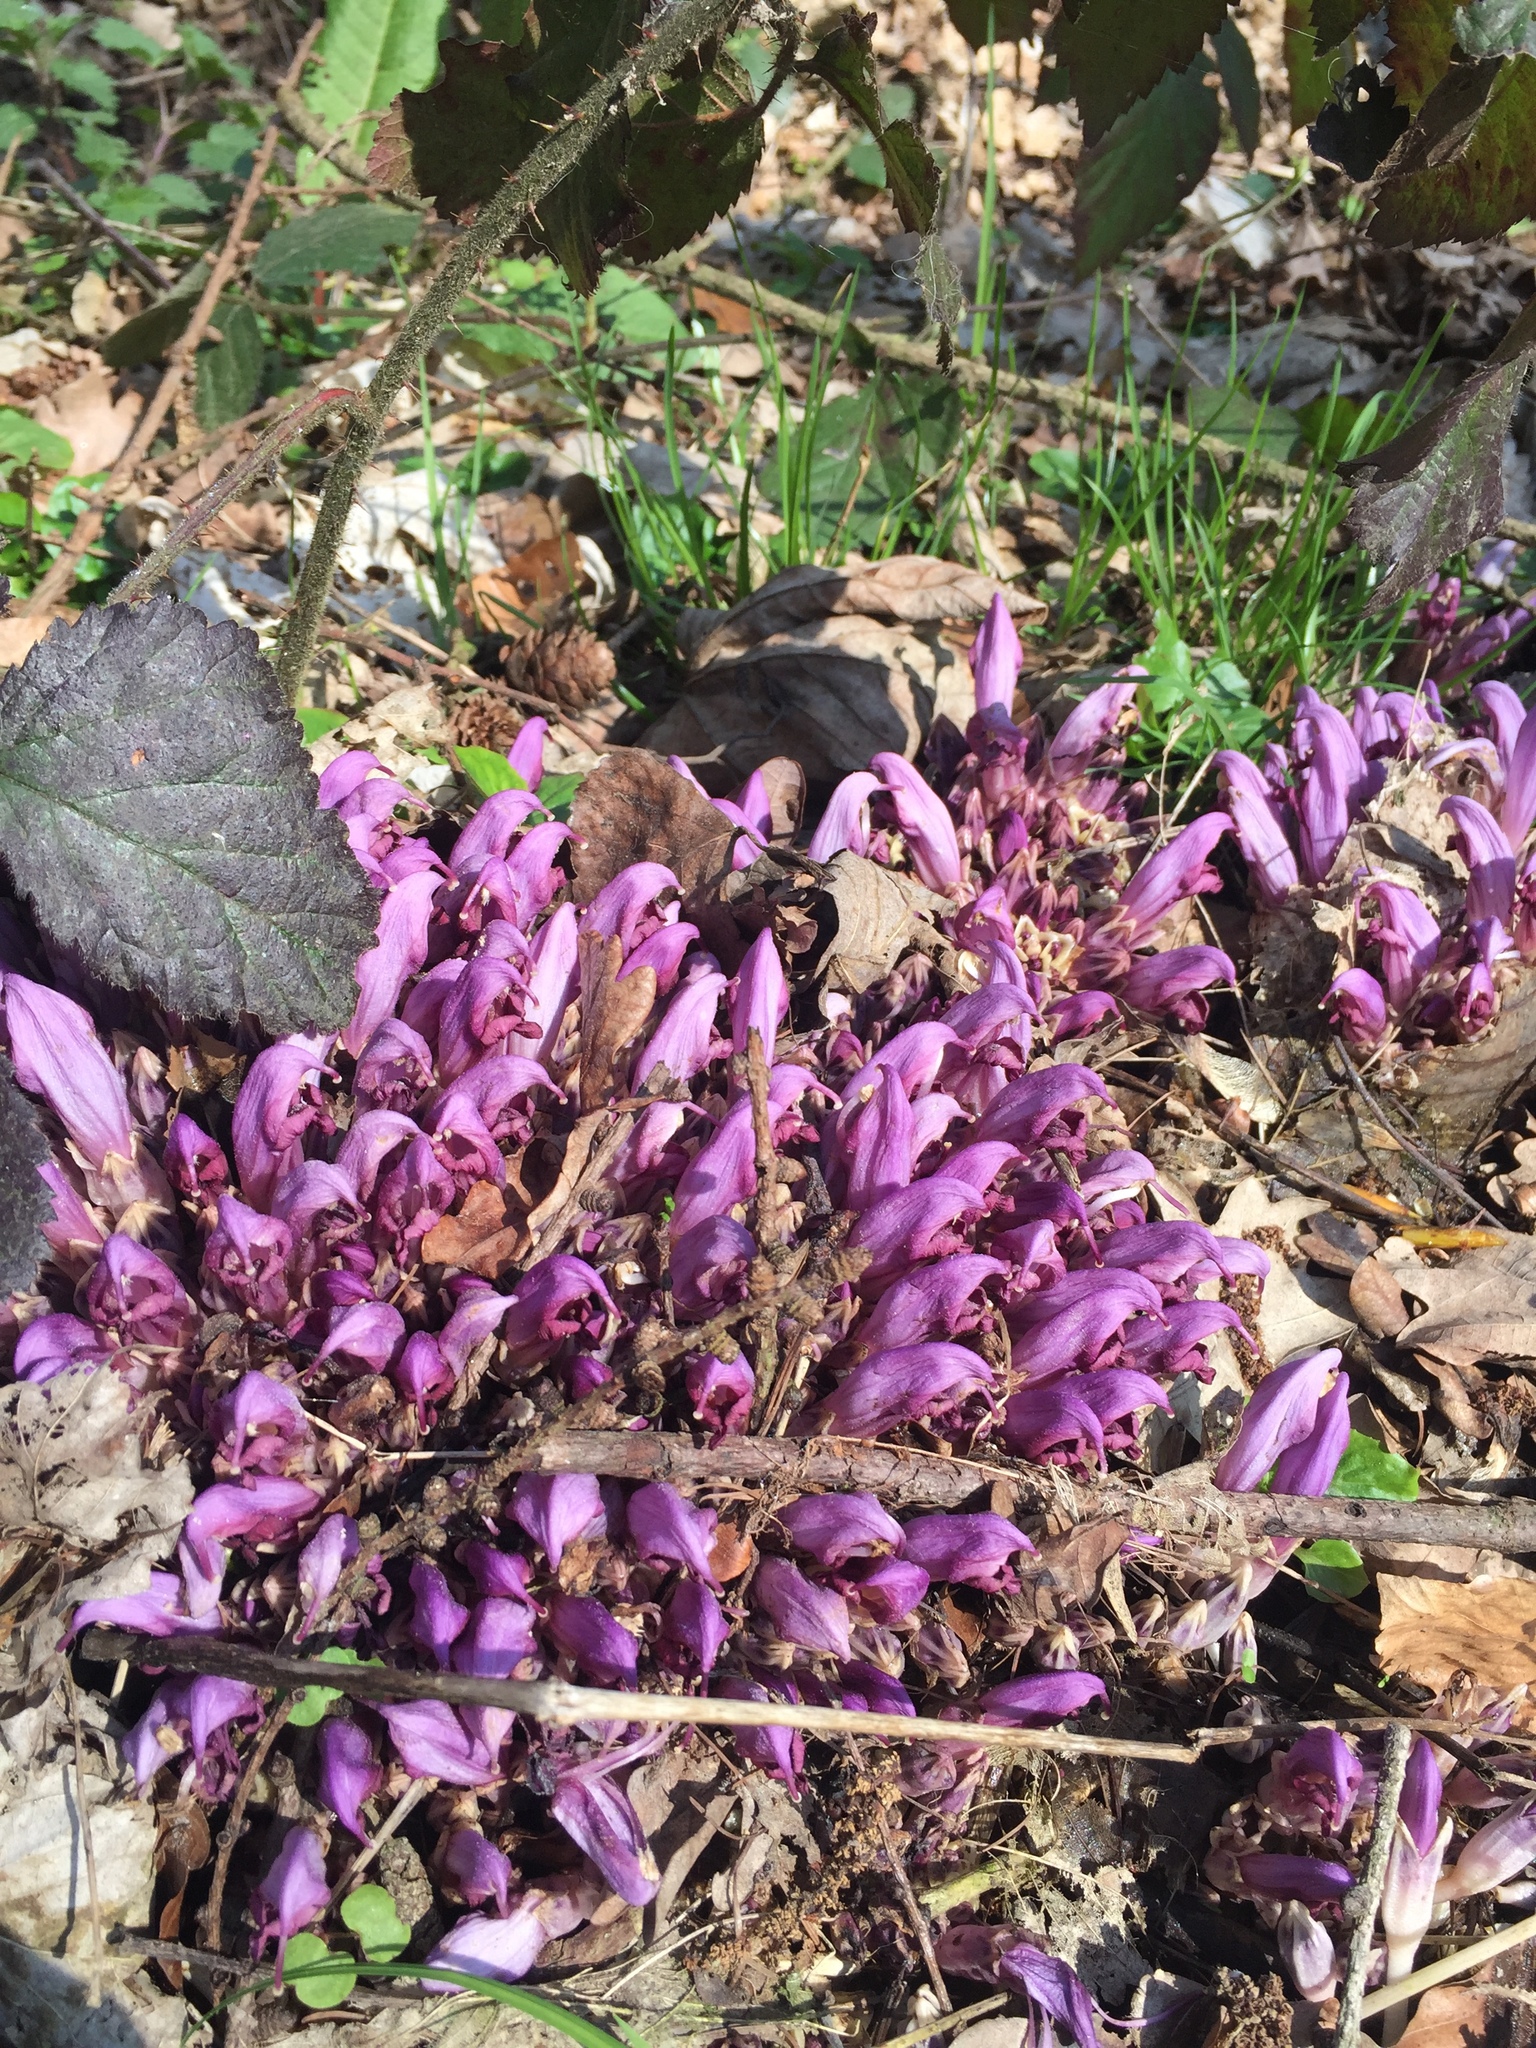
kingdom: Plantae
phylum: Tracheophyta
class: Magnoliopsida
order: Lamiales
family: Orobanchaceae
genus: Lathraea
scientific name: Lathraea clandestina
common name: Purple toothwort
